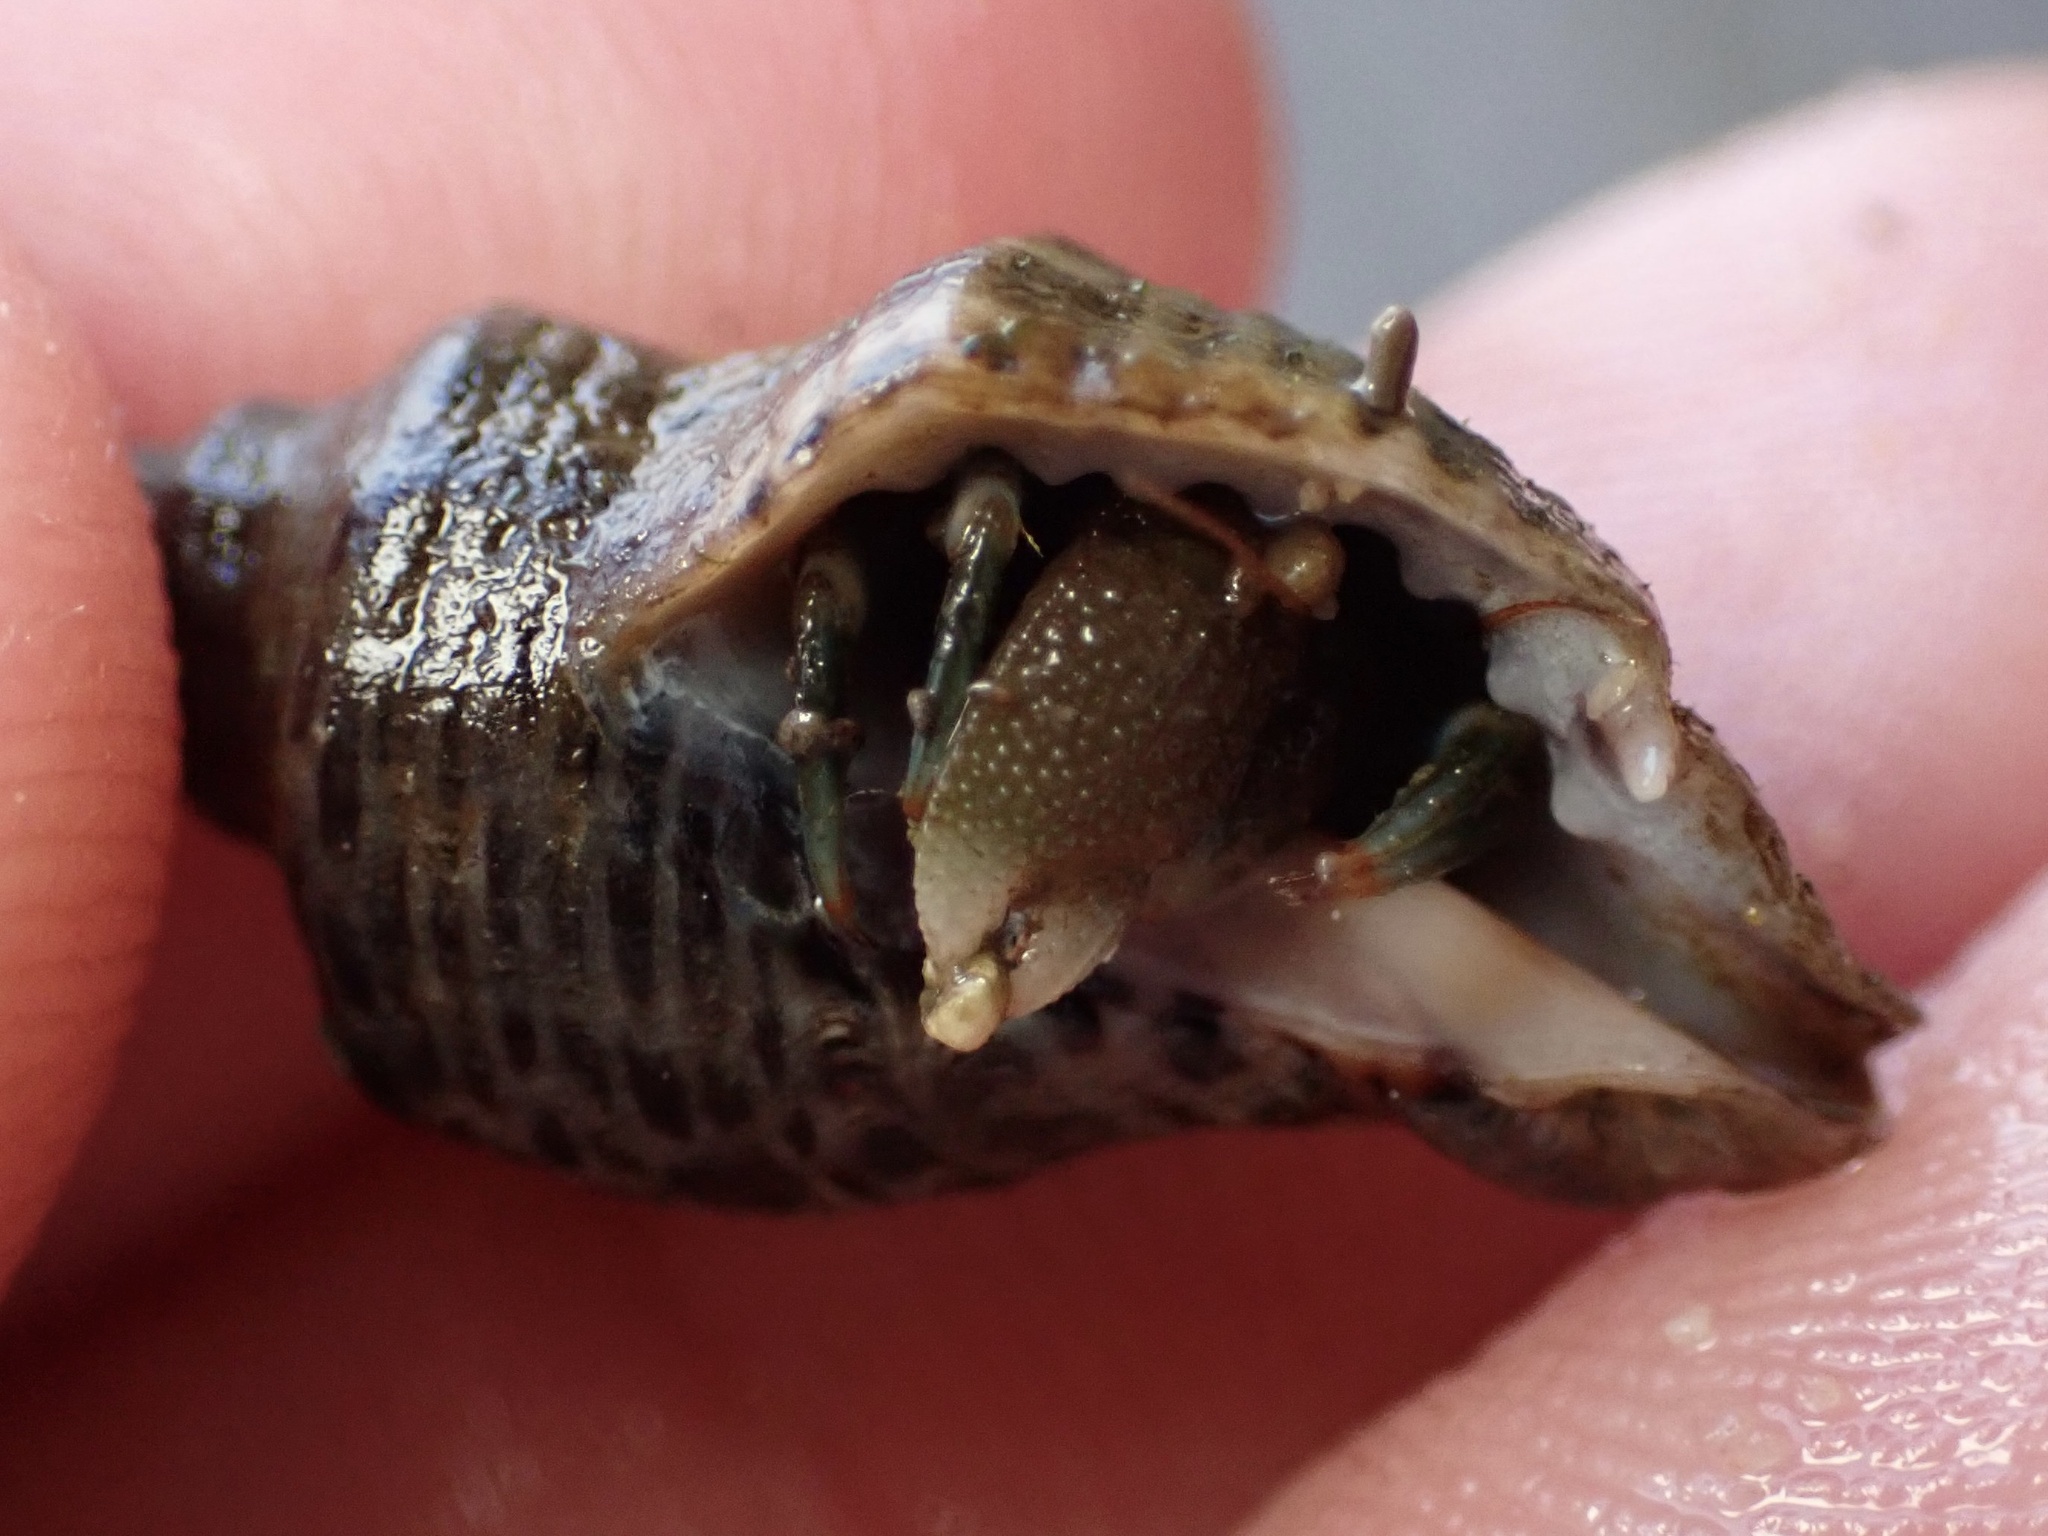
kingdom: Animalia
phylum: Arthropoda
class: Malacostraca
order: Decapoda
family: Paguridae
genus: Pagurus
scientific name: Pagurus venturensis
